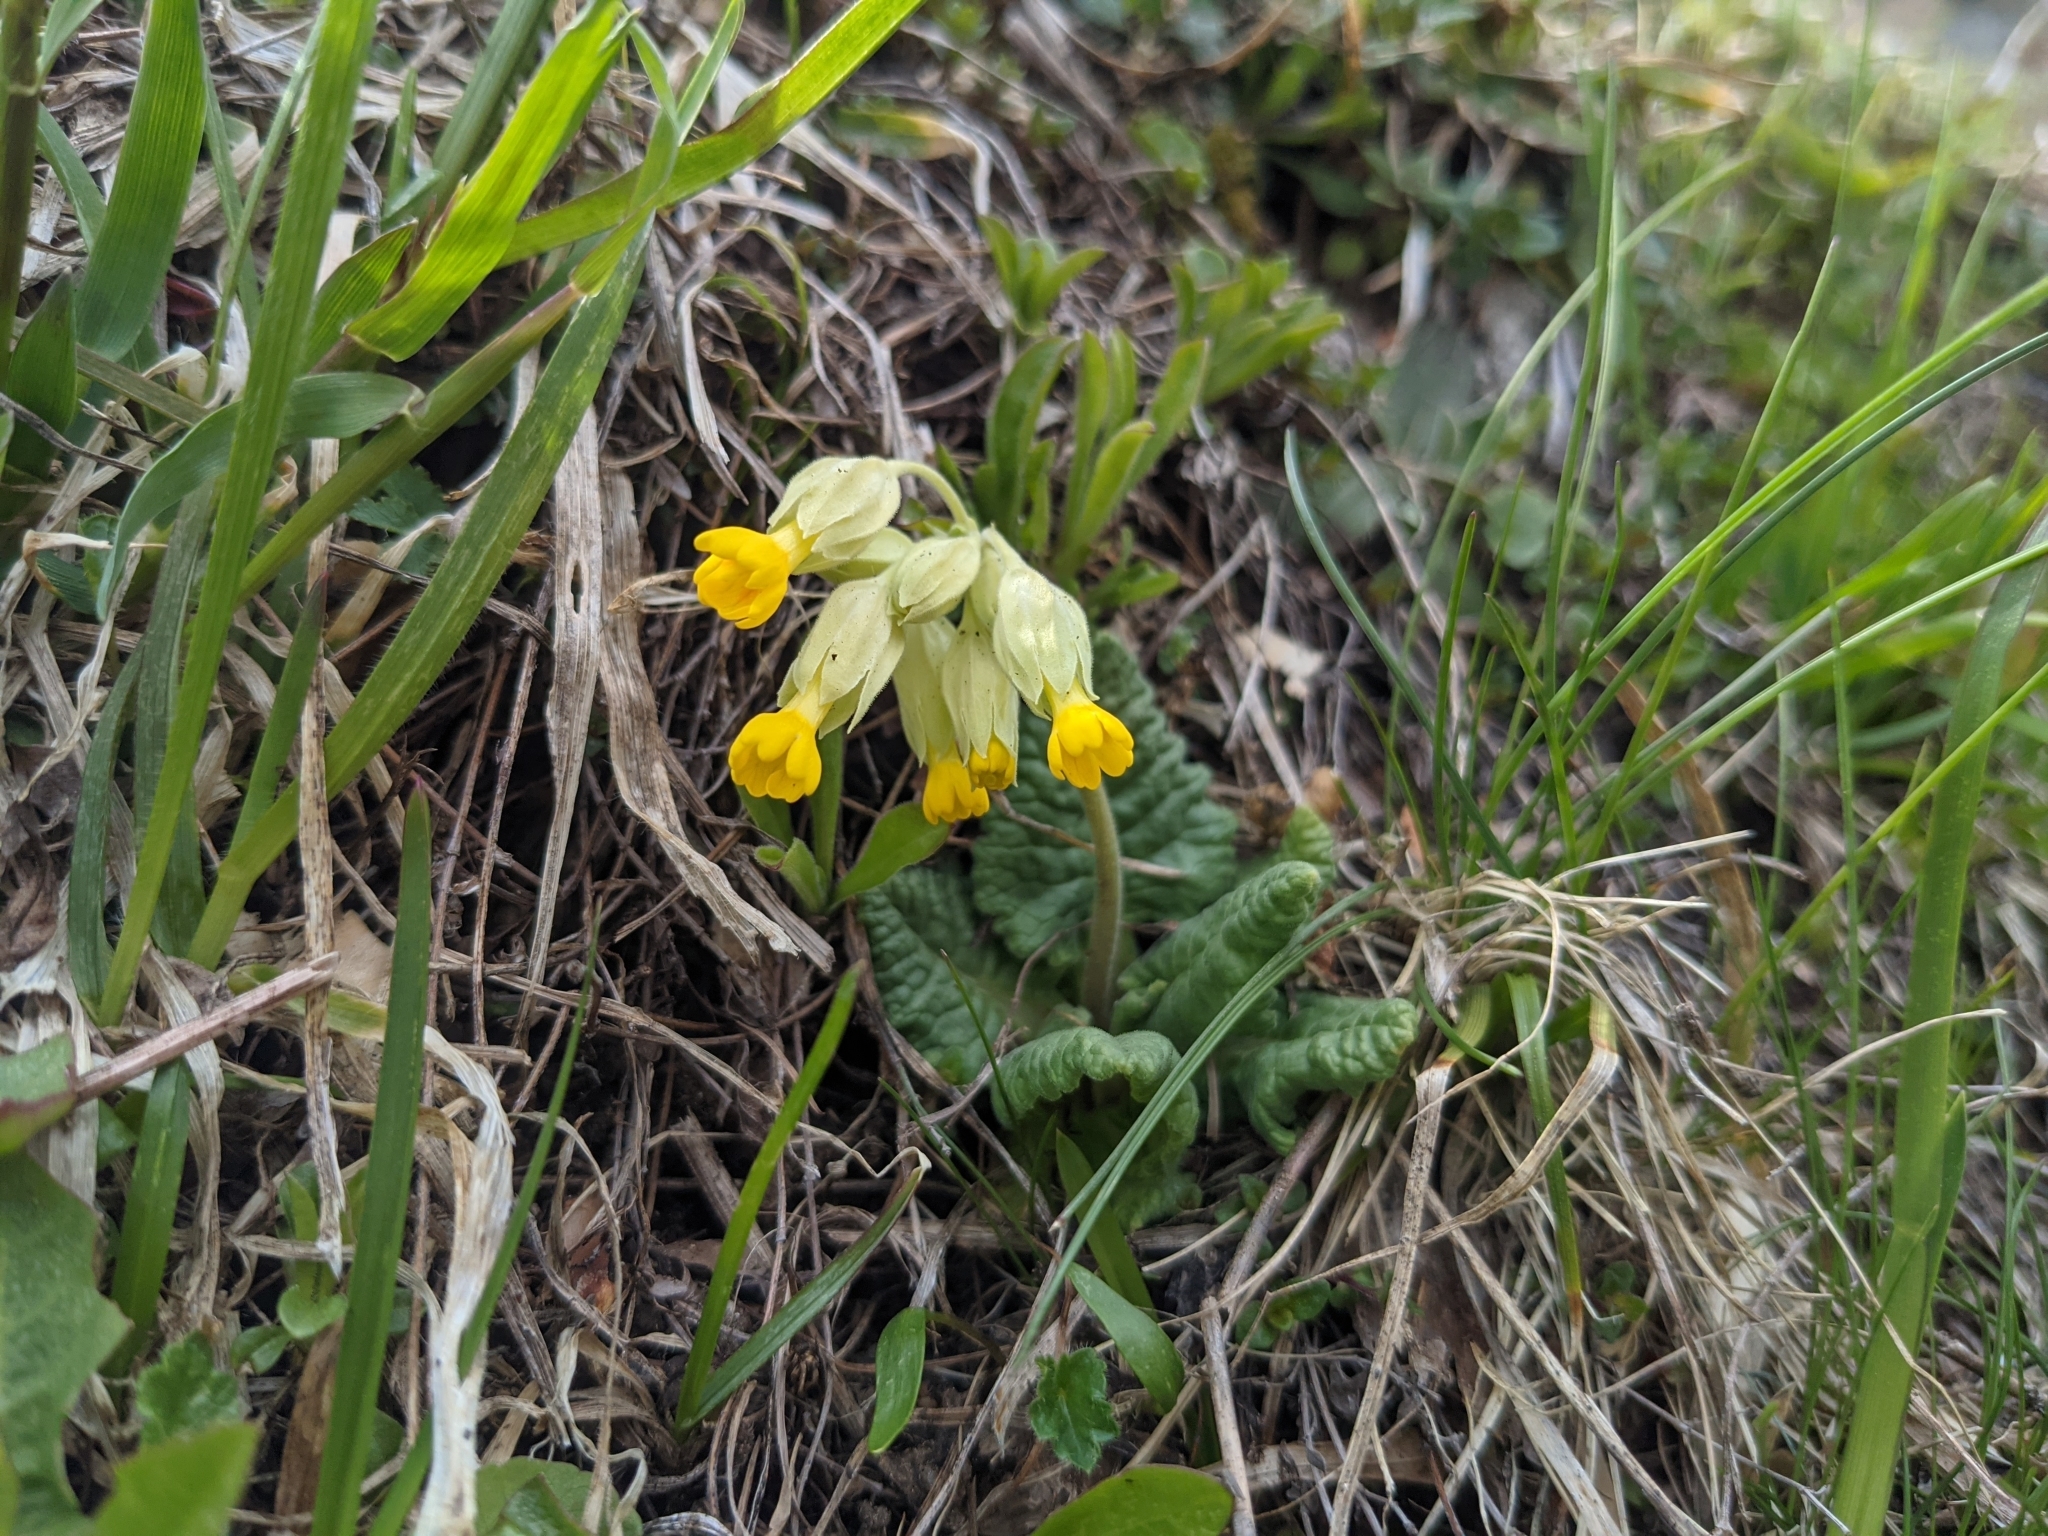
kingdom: Plantae
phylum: Tracheophyta
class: Magnoliopsida
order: Ericales
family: Primulaceae
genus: Primula
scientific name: Primula veris
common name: Cowslip
